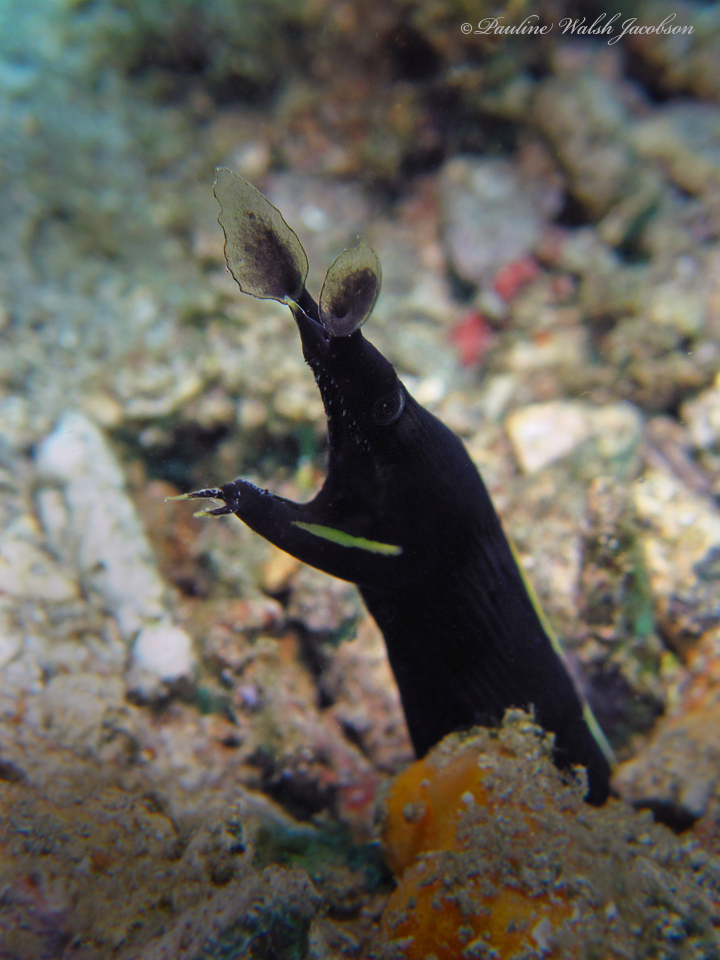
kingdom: Animalia
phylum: Chordata
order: Anguilliformes
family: Muraenidae
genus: Rhinomuraena
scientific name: Rhinomuraena quaesita
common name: Ribbon eel
